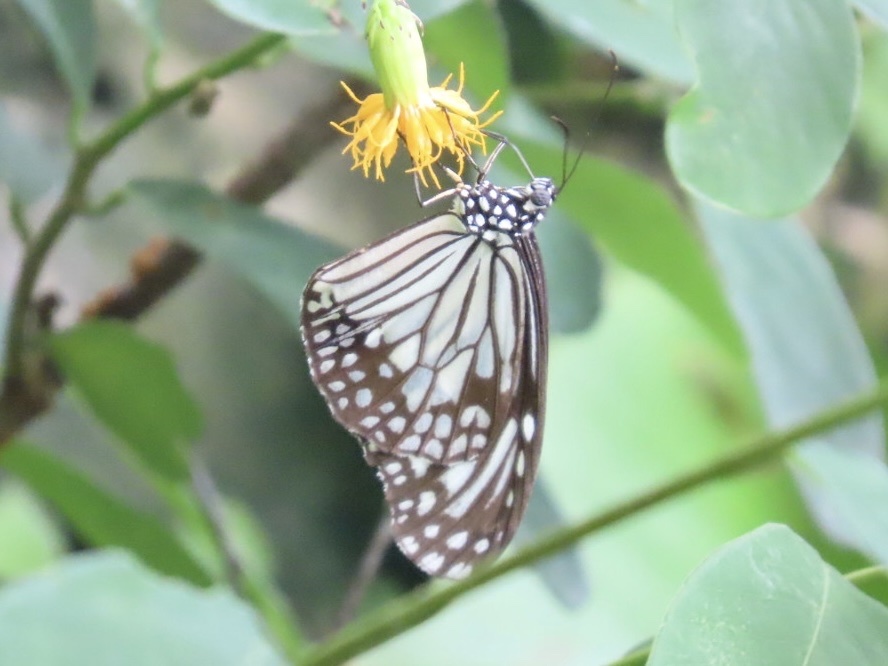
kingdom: Animalia
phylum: Arthropoda
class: Insecta
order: Lepidoptera
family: Nymphalidae
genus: Parantica
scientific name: Parantica aglea
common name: Glassy tiger
